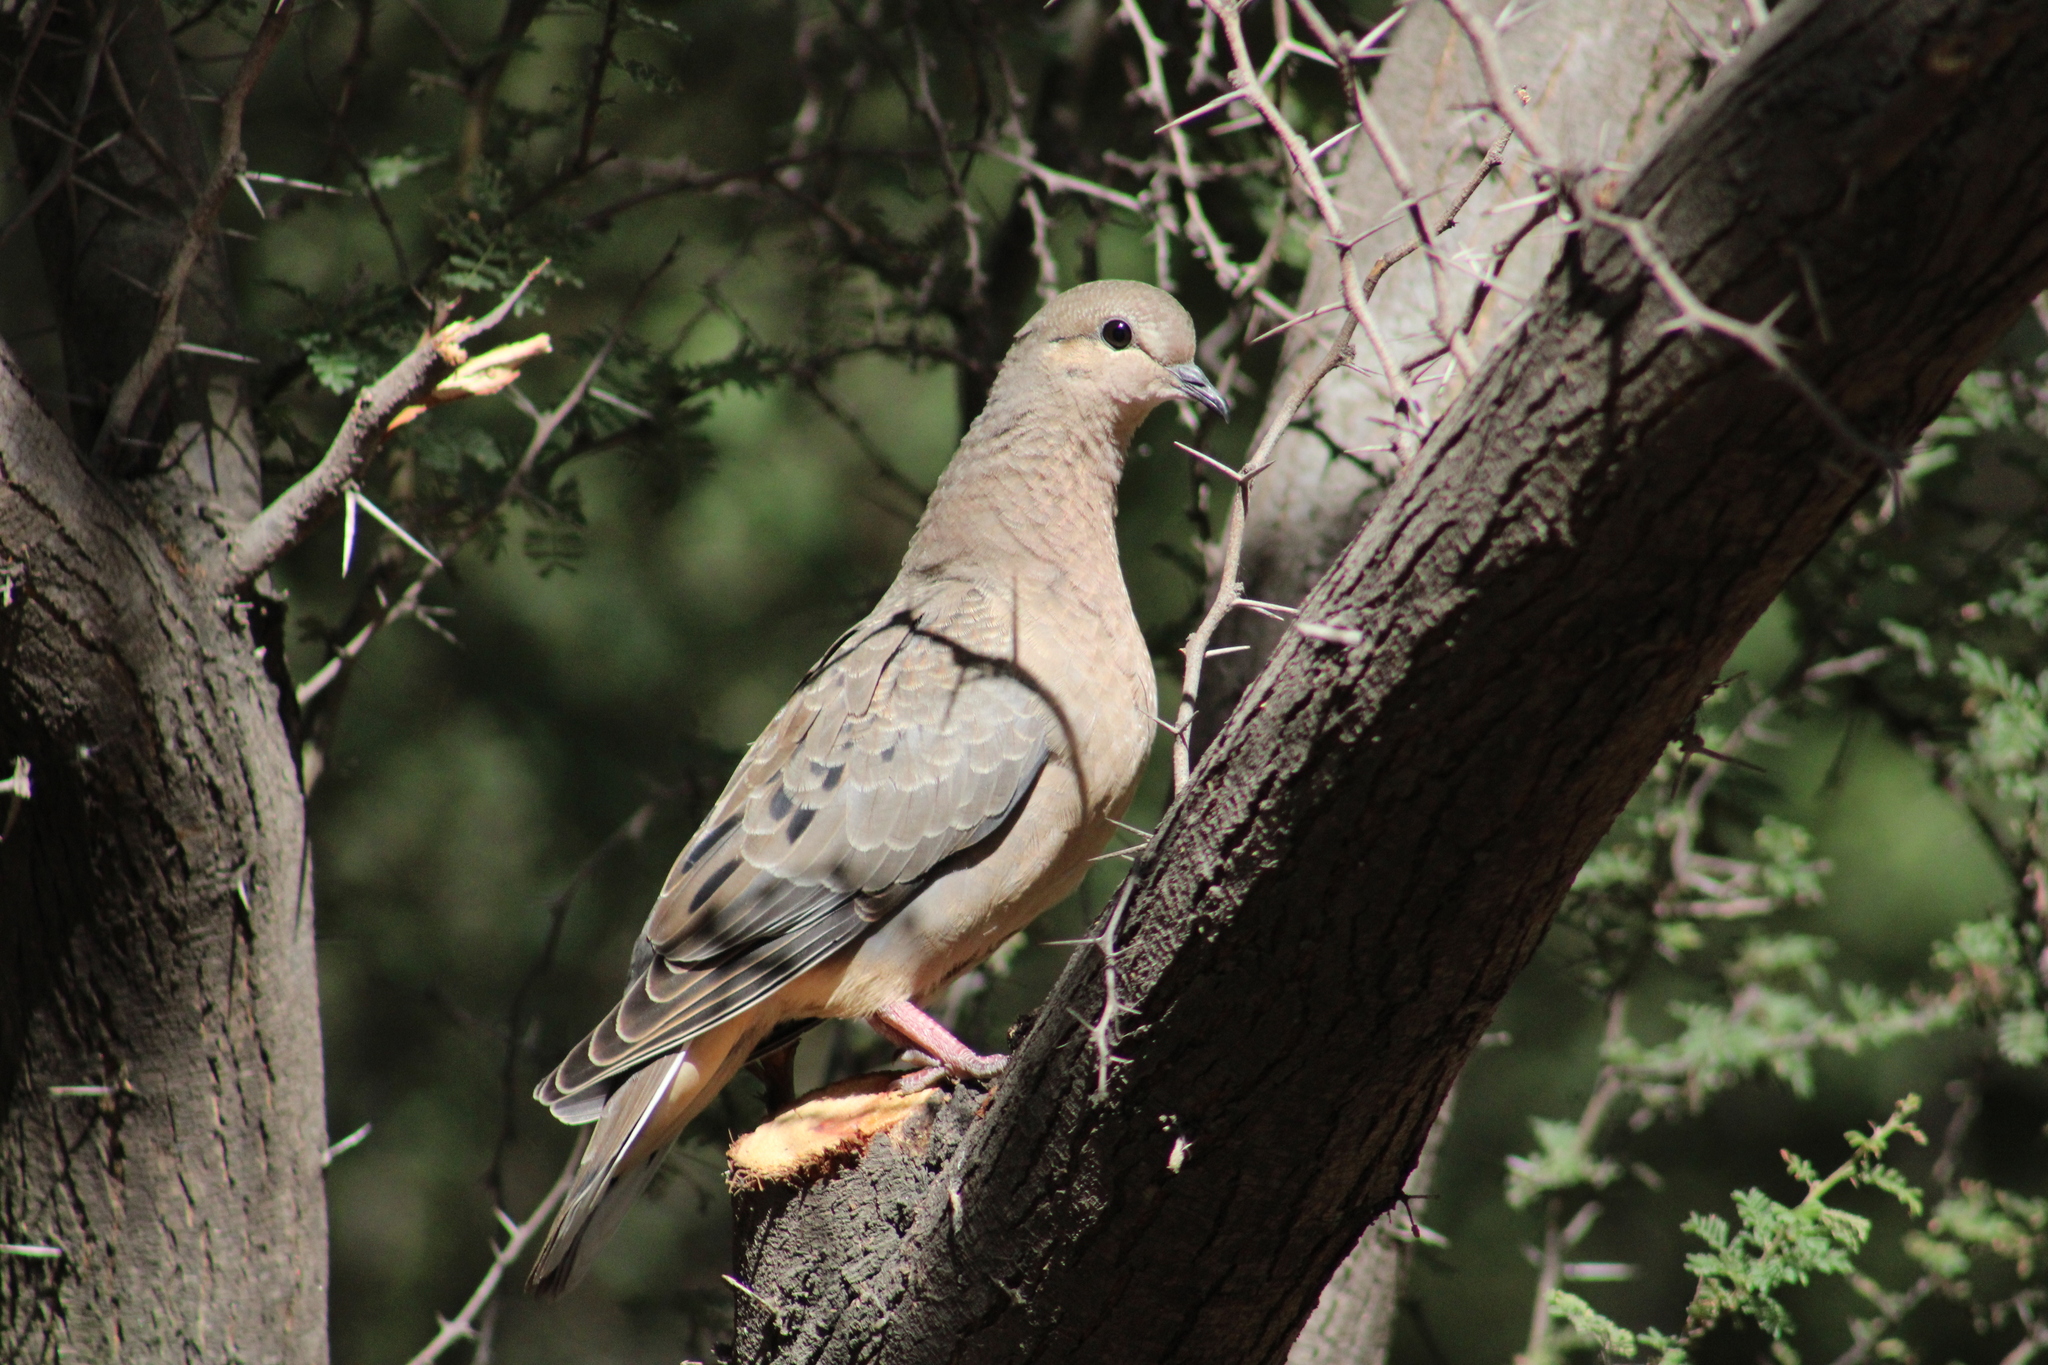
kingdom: Animalia
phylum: Chordata
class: Aves
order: Columbiformes
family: Columbidae
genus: Zenaida
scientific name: Zenaida auriculata
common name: Eared dove
